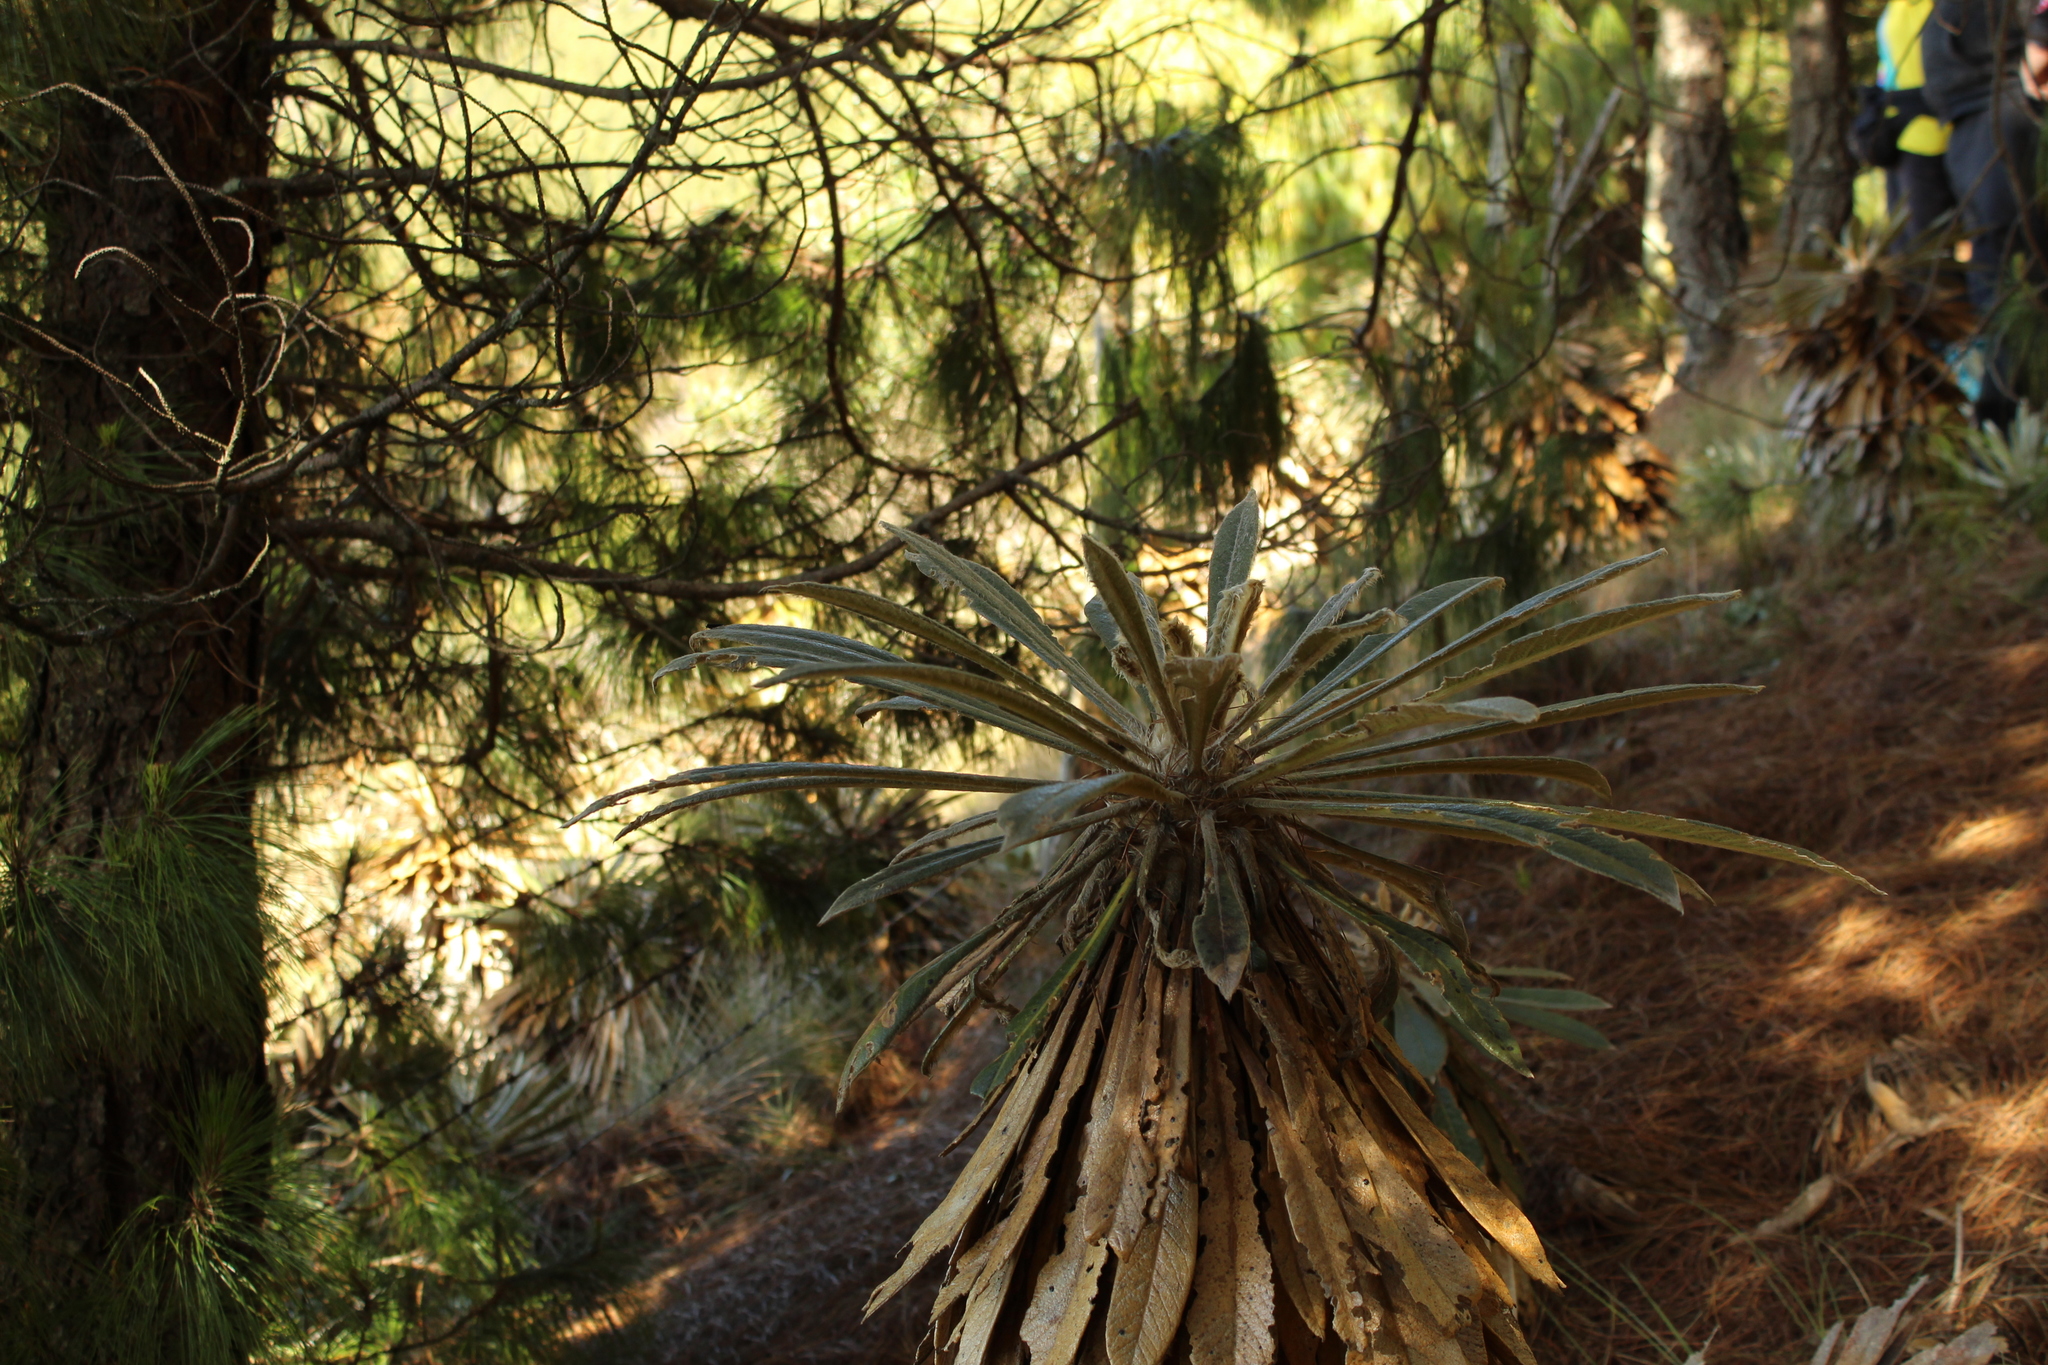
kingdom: Plantae
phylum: Tracheophyta
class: Magnoliopsida
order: Asterales
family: Asteraceae
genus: Espeletia
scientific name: Espeletia guacharaca
